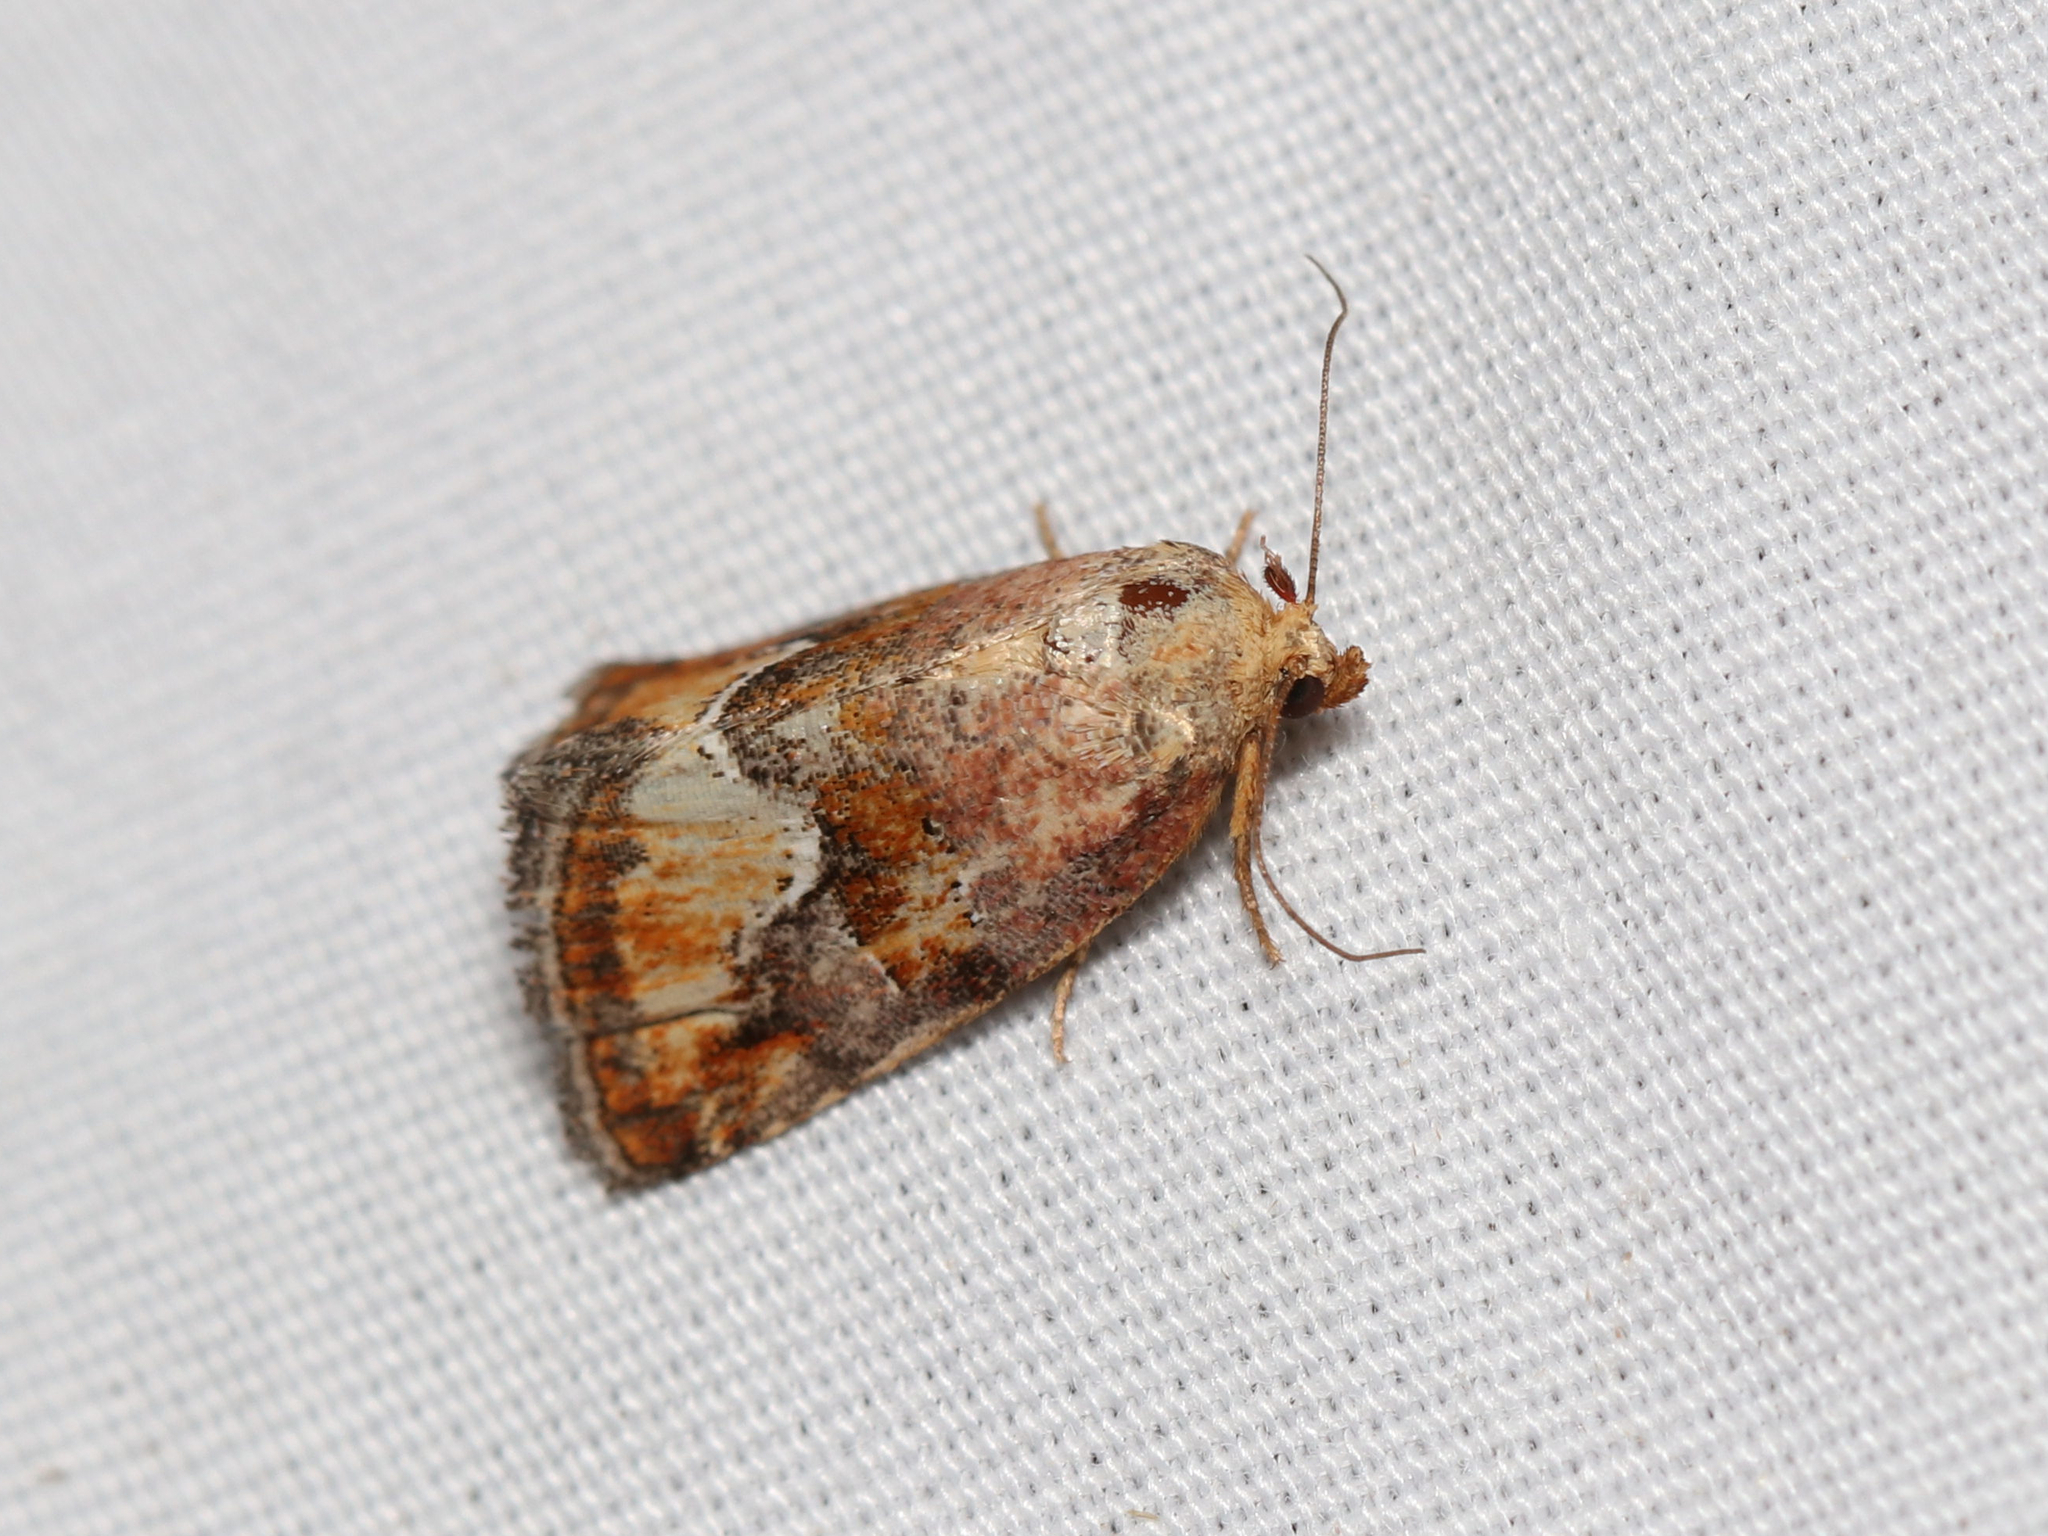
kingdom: Animalia
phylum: Arthropoda
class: Insecta
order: Lepidoptera
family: Noctuidae
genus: Deltote
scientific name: Deltote bellicula
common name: Bog glyph
